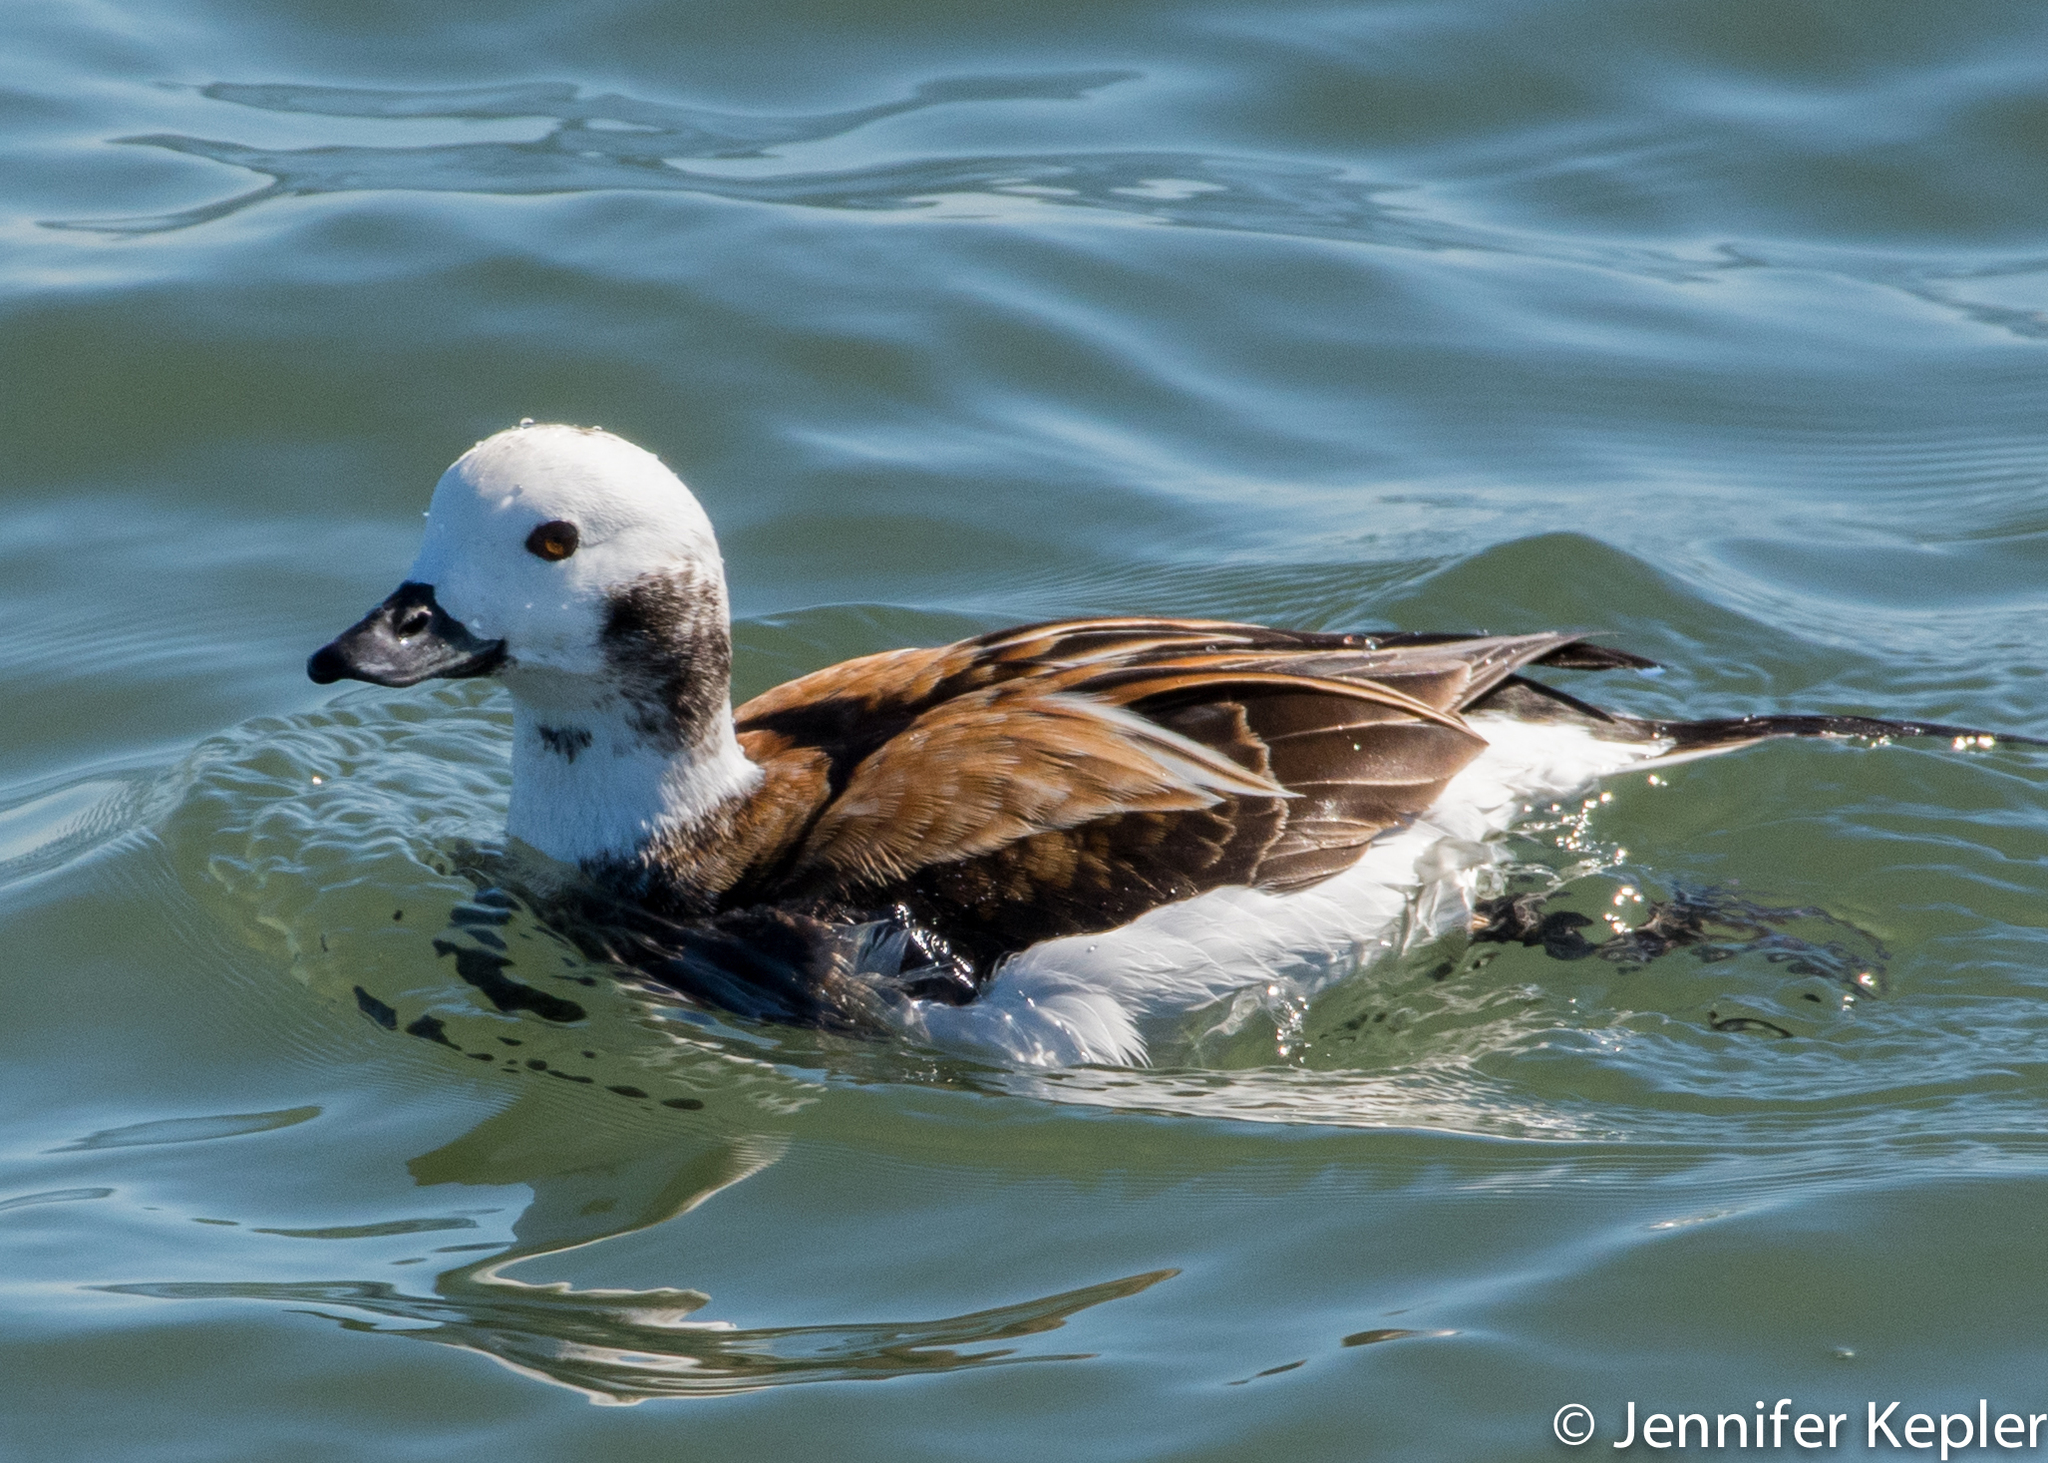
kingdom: Animalia
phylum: Chordata
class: Aves
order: Anseriformes
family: Anatidae
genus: Clangula
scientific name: Clangula hyemalis
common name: Long-tailed duck
